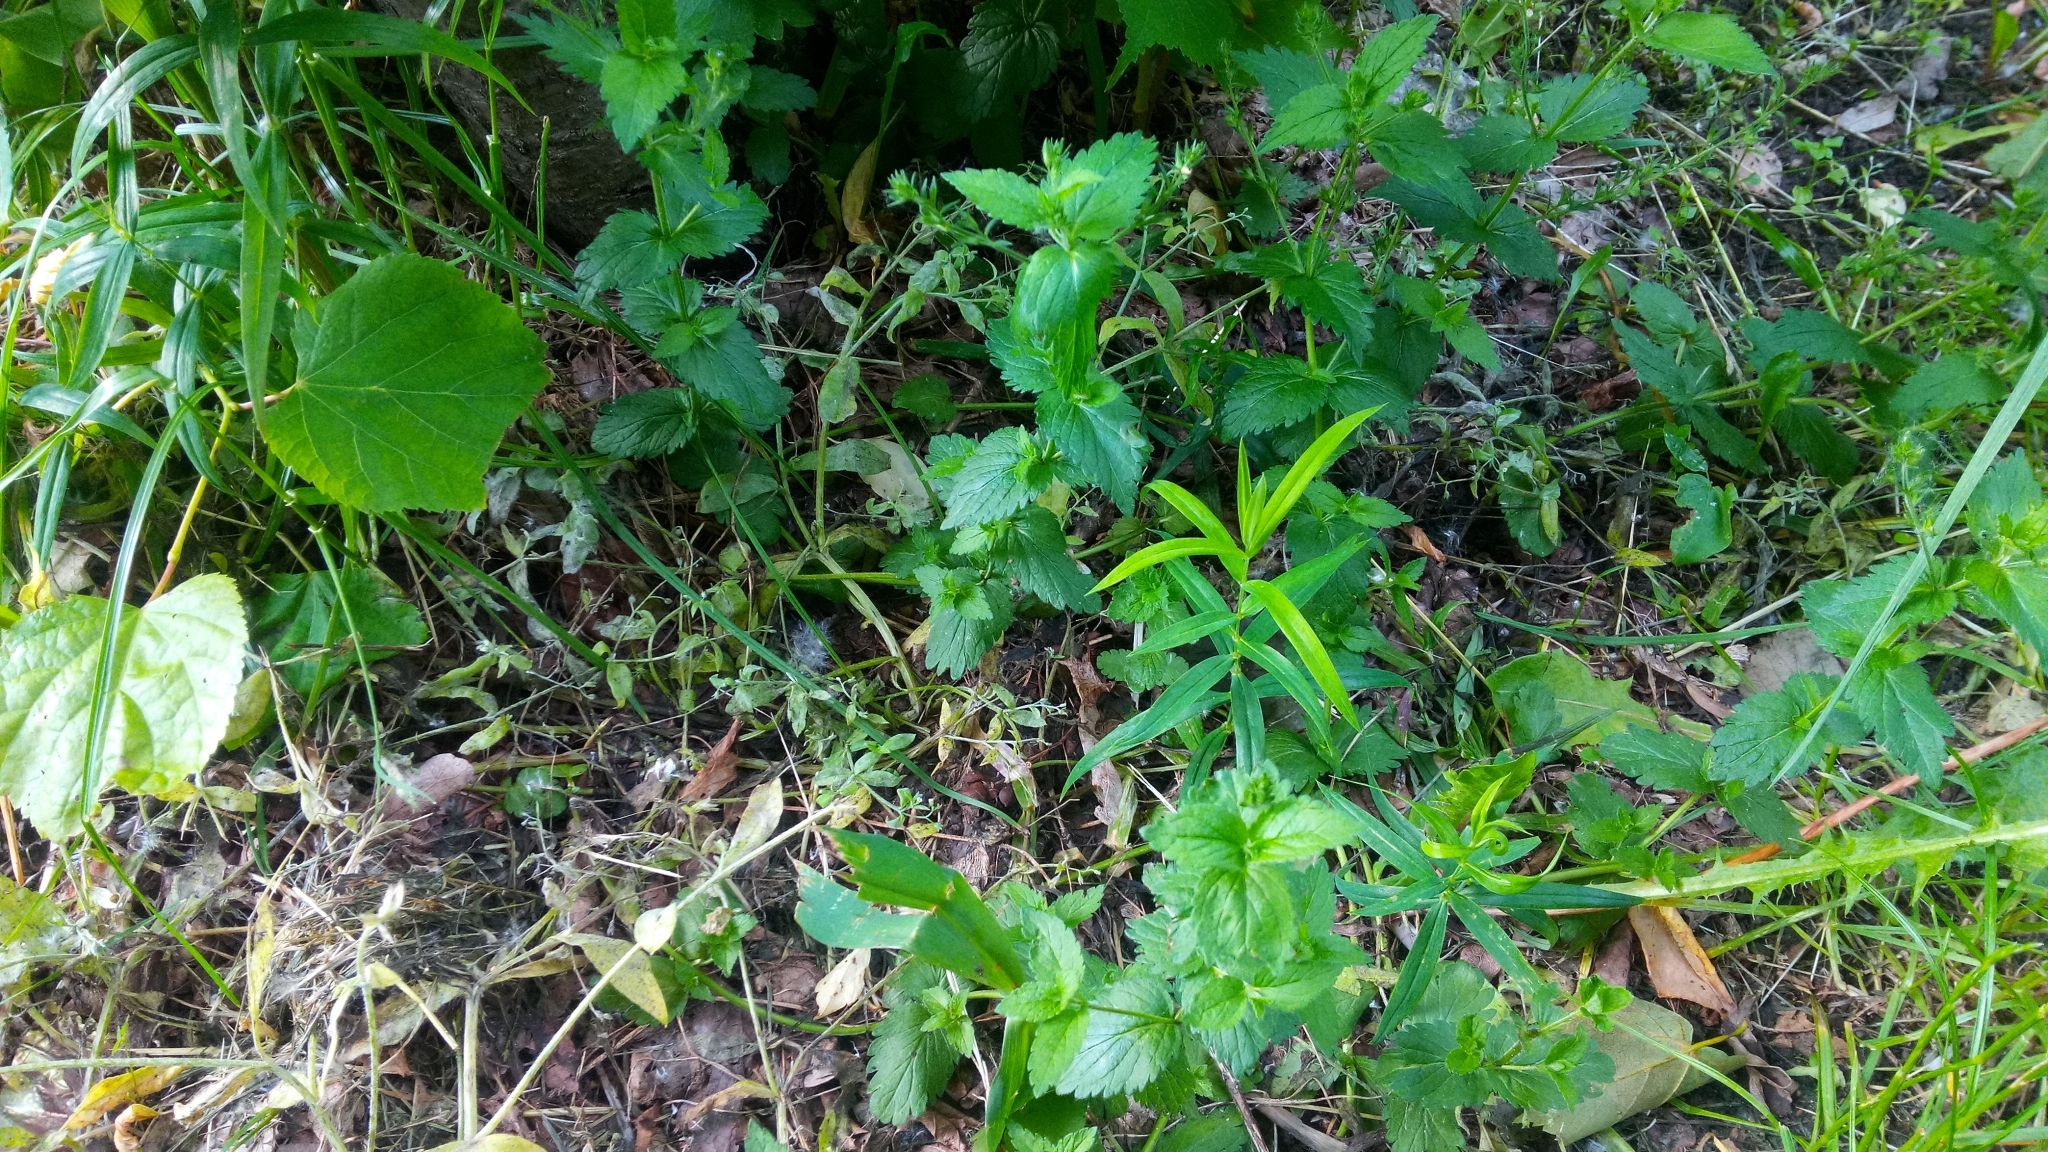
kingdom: Plantae
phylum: Tracheophyta
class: Magnoliopsida
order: Lamiales
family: Plantaginaceae
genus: Veronica
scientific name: Veronica chamaedrys
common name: Germander speedwell
